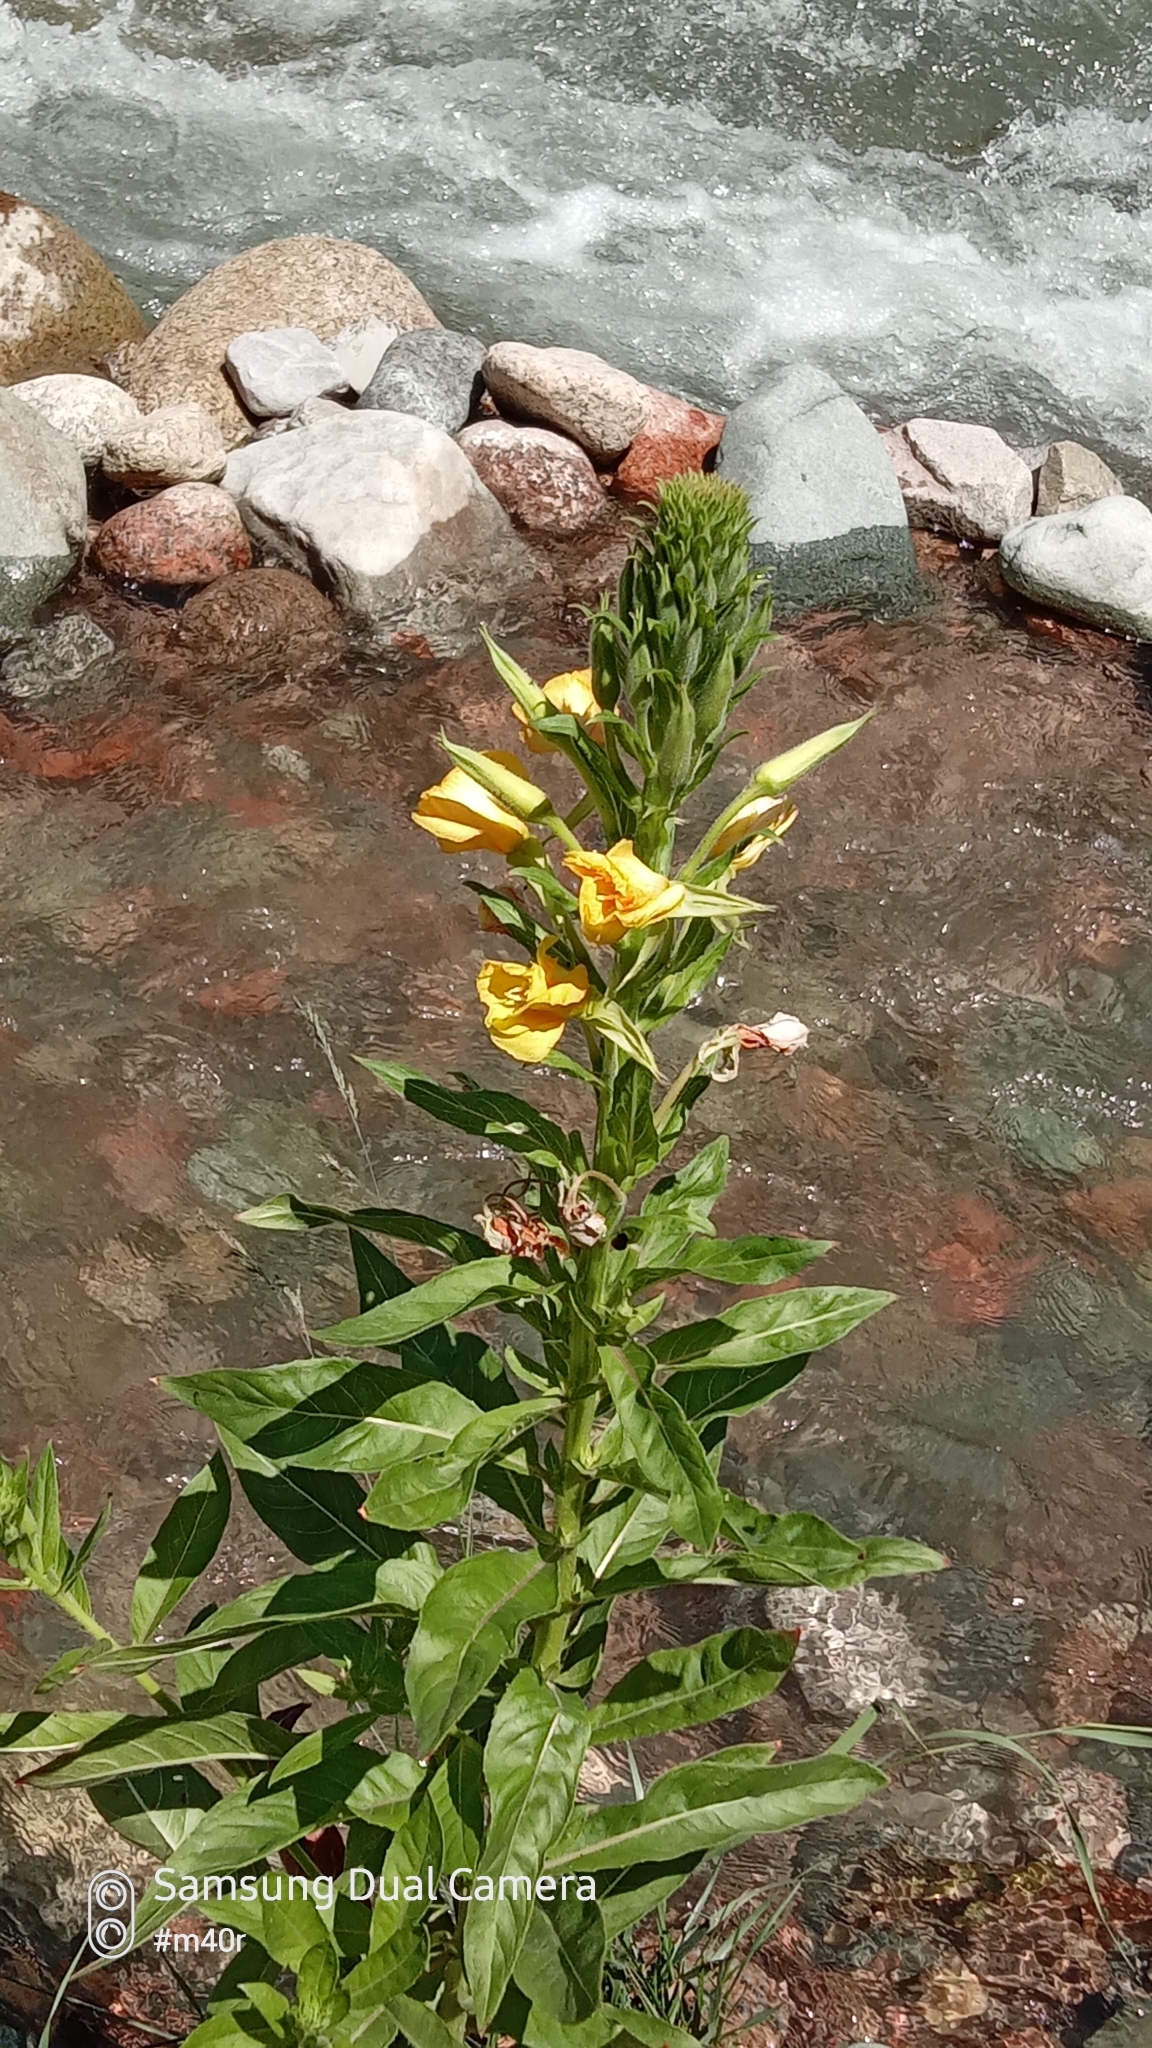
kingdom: Plantae
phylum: Tracheophyta
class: Magnoliopsida
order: Myrtales
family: Onagraceae
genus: Oenothera
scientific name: Oenothera biennis
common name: Common evening-primrose
